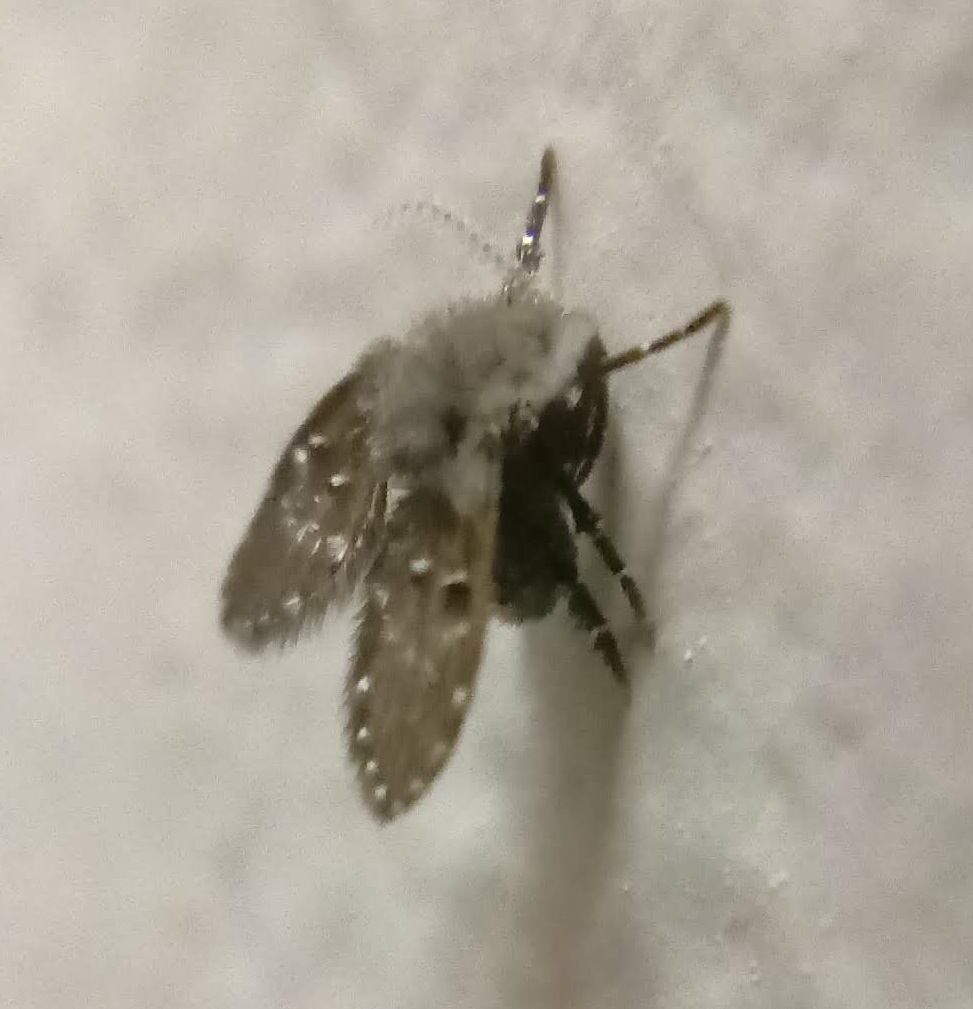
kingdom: Animalia
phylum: Arthropoda
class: Insecta
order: Diptera
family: Psychodidae
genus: Clogmia
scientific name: Clogmia albipunctatus
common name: White-spotted moth fly
